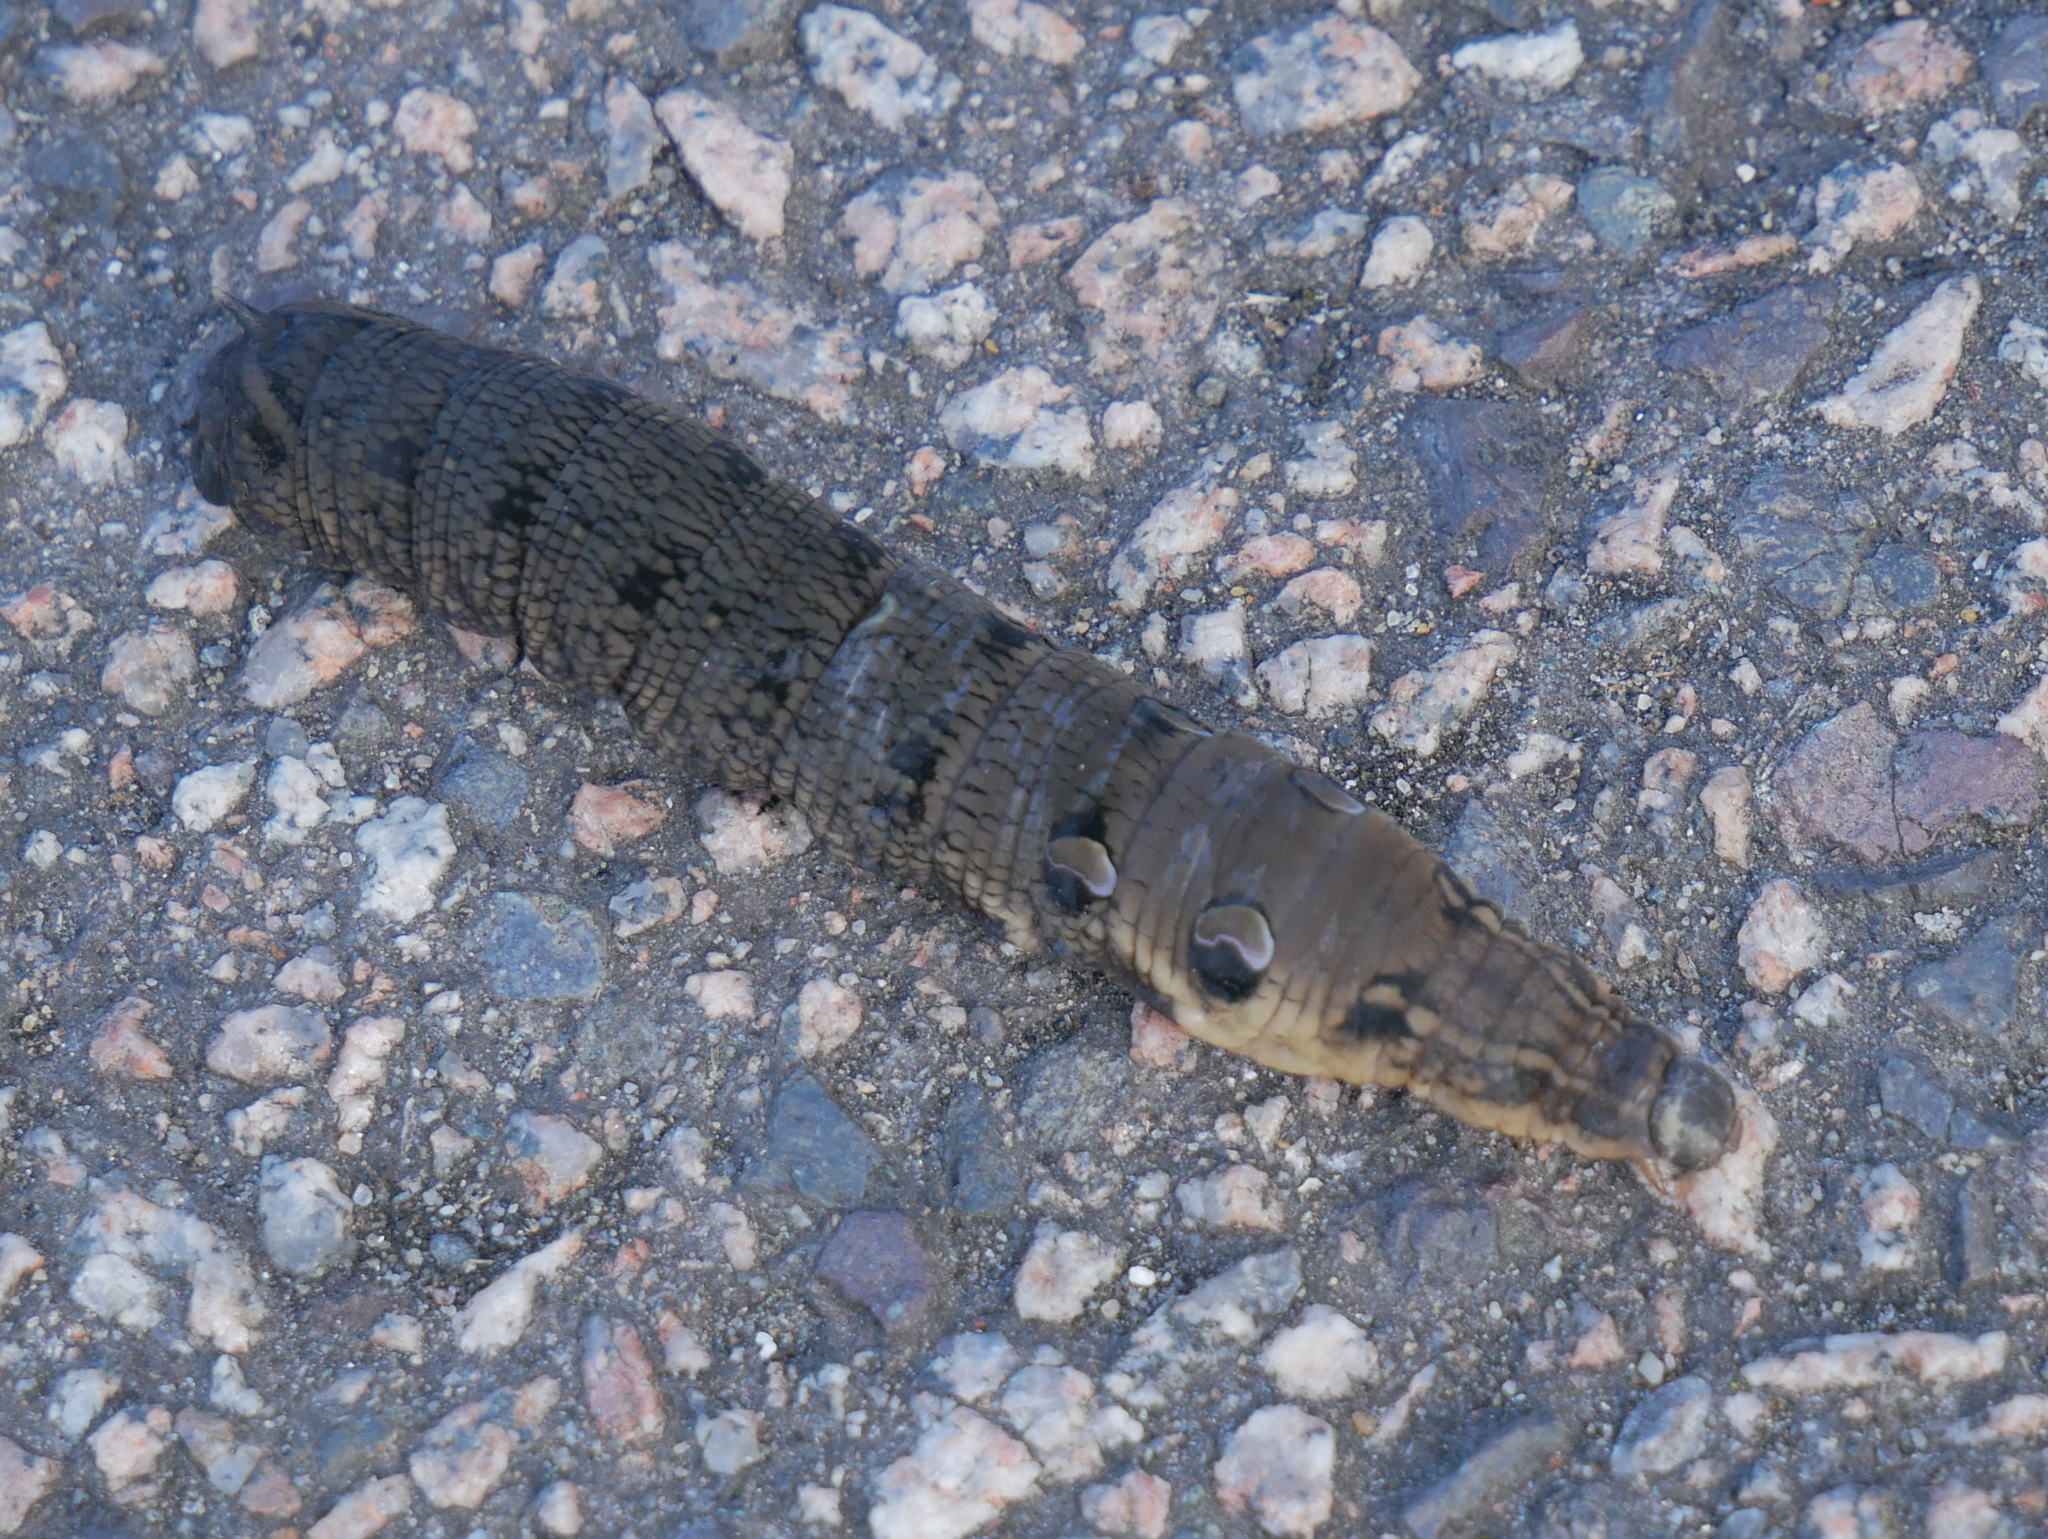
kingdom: Animalia
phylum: Arthropoda
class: Insecta
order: Lepidoptera
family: Sphingidae
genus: Deilephila
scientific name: Deilephila elpenor
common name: Elephant hawk-moth
